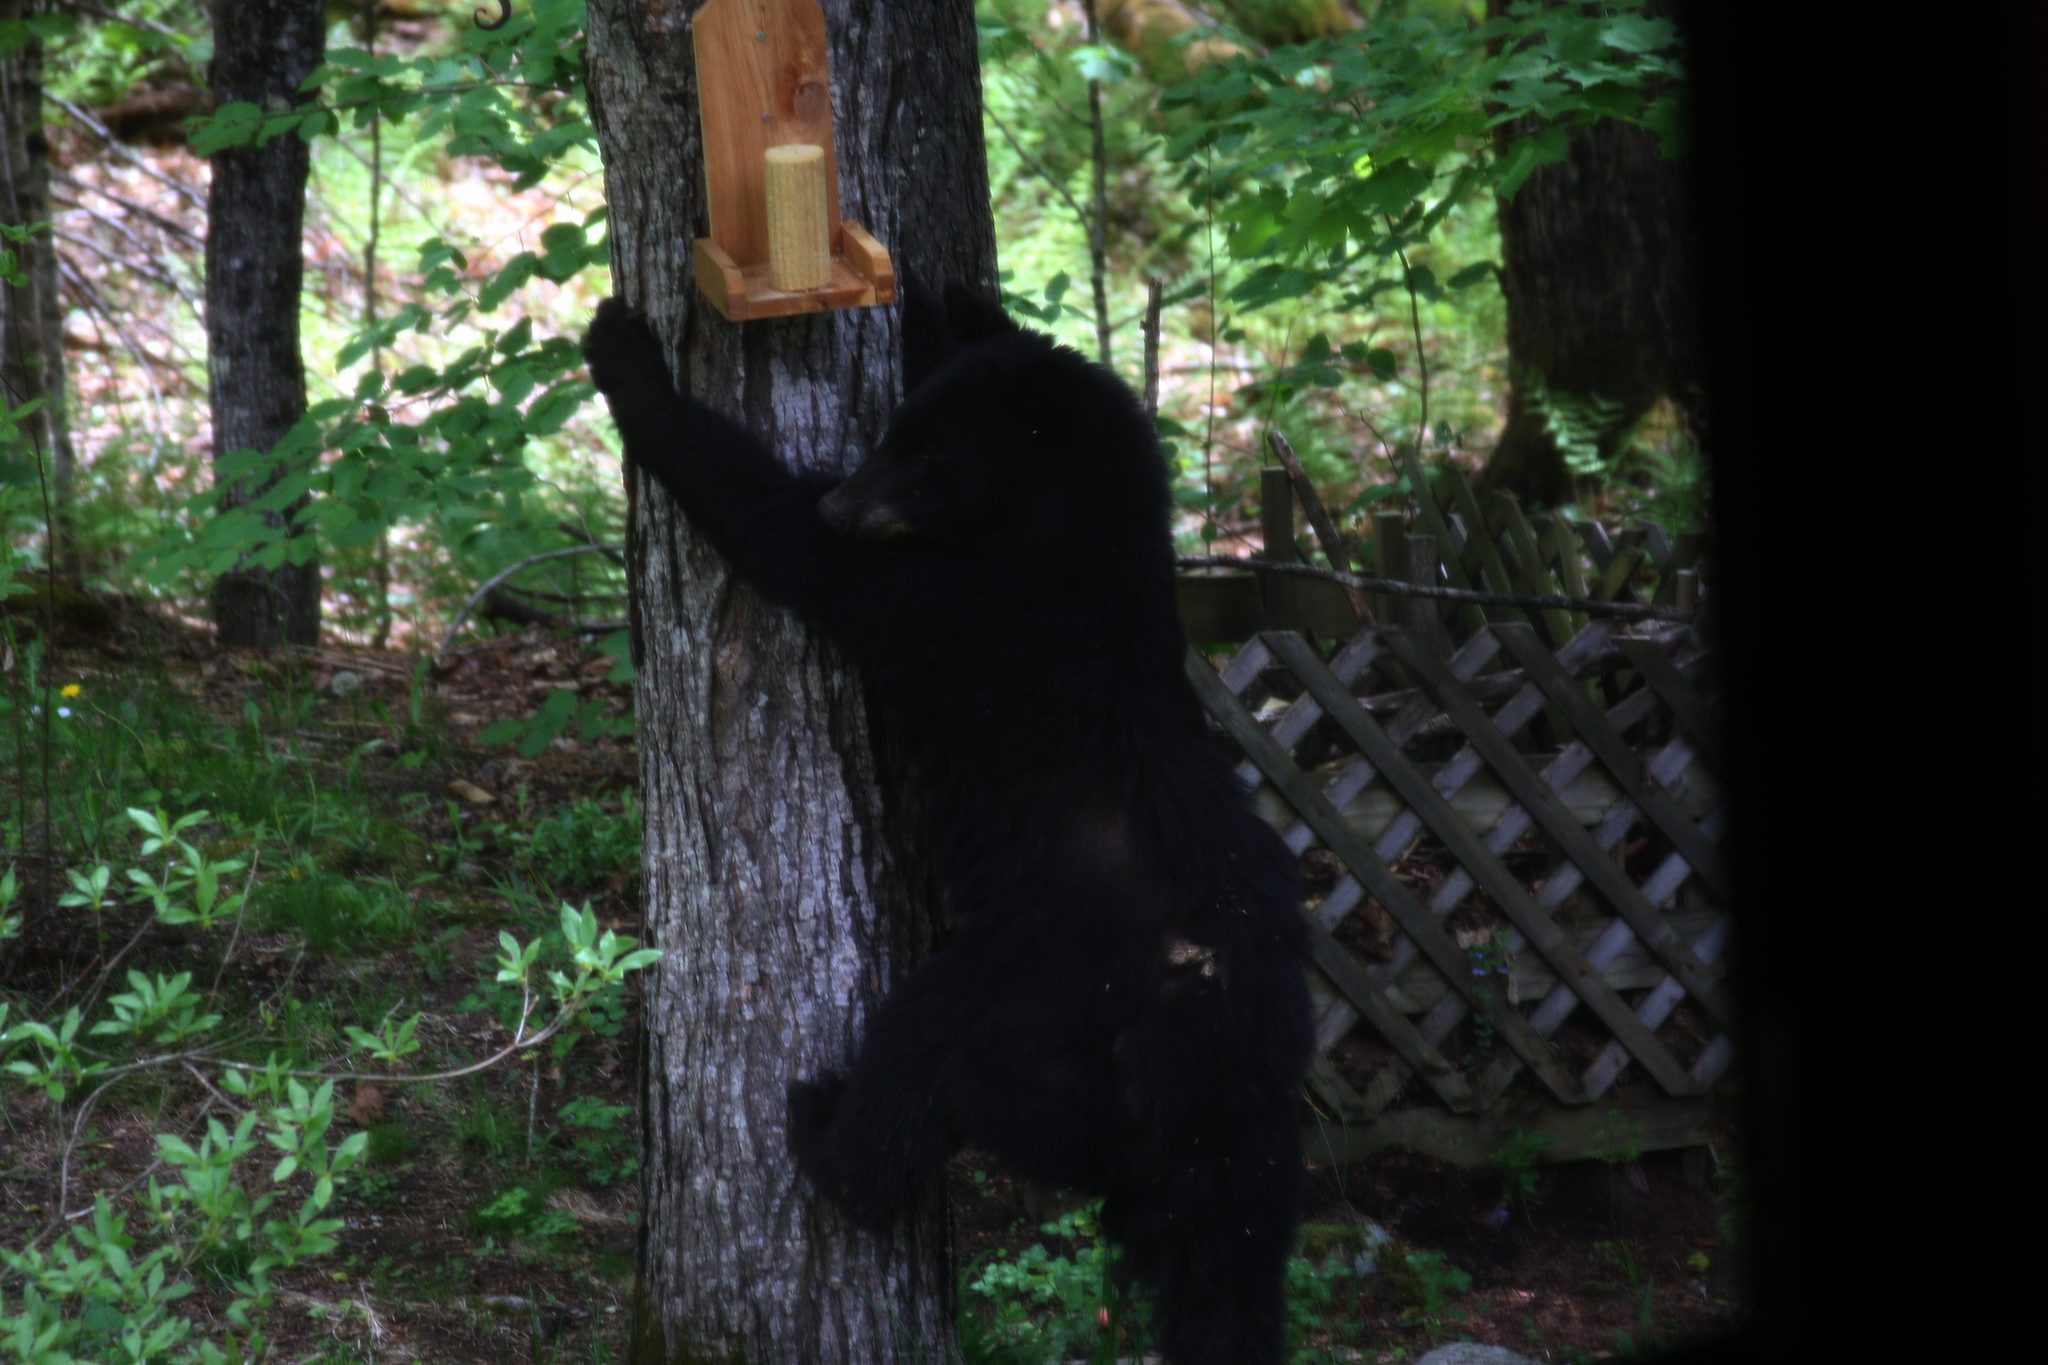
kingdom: Animalia
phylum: Chordata
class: Mammalia
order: Carnivora
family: Ursidae
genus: Ursus
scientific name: Ursus americanus
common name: American black bear
